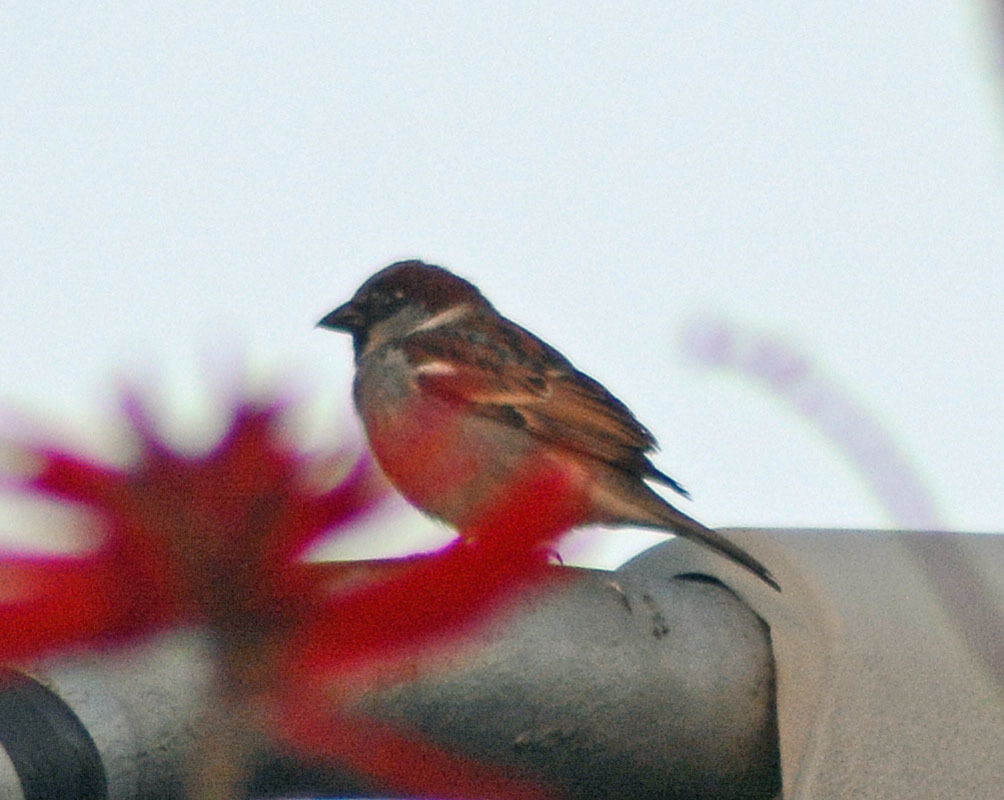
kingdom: Animalia
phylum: Chordata
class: Aves
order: Passeriformes
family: Passeridae
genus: Passer
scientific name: Passer domesticus
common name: House sparrow
